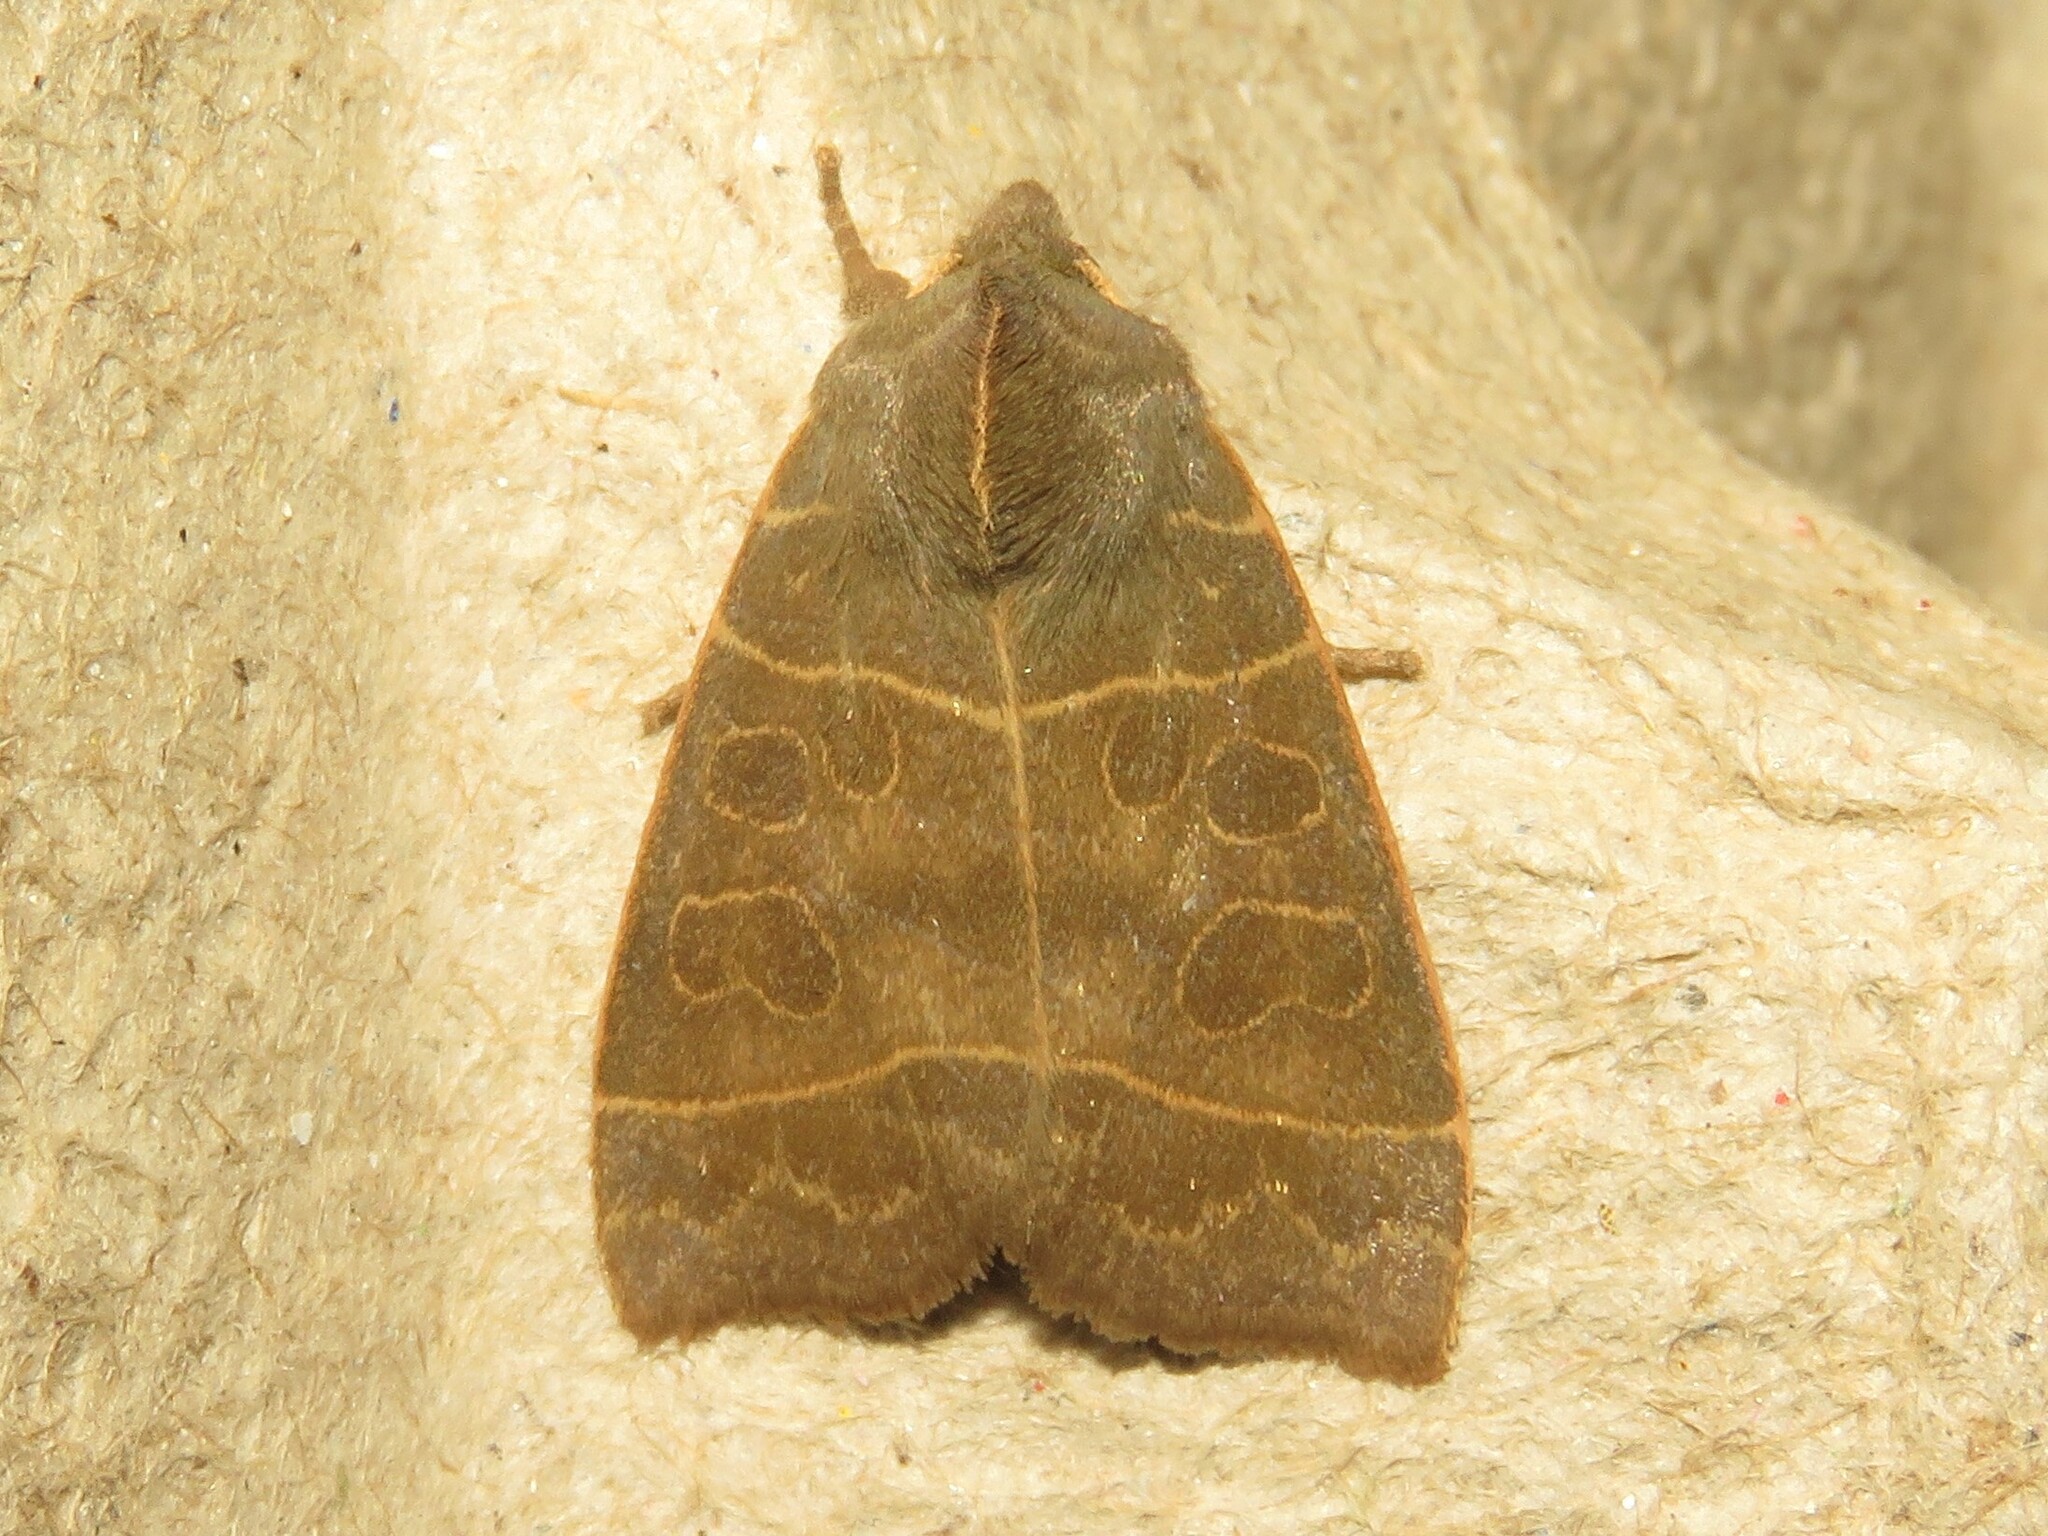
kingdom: Animalia
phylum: Arthropoda
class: Insecta
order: Lepidoptera
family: Noctuidae
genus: Ipimorpha
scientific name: Ipimorpha pleonectusa
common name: Even-lined sallow
